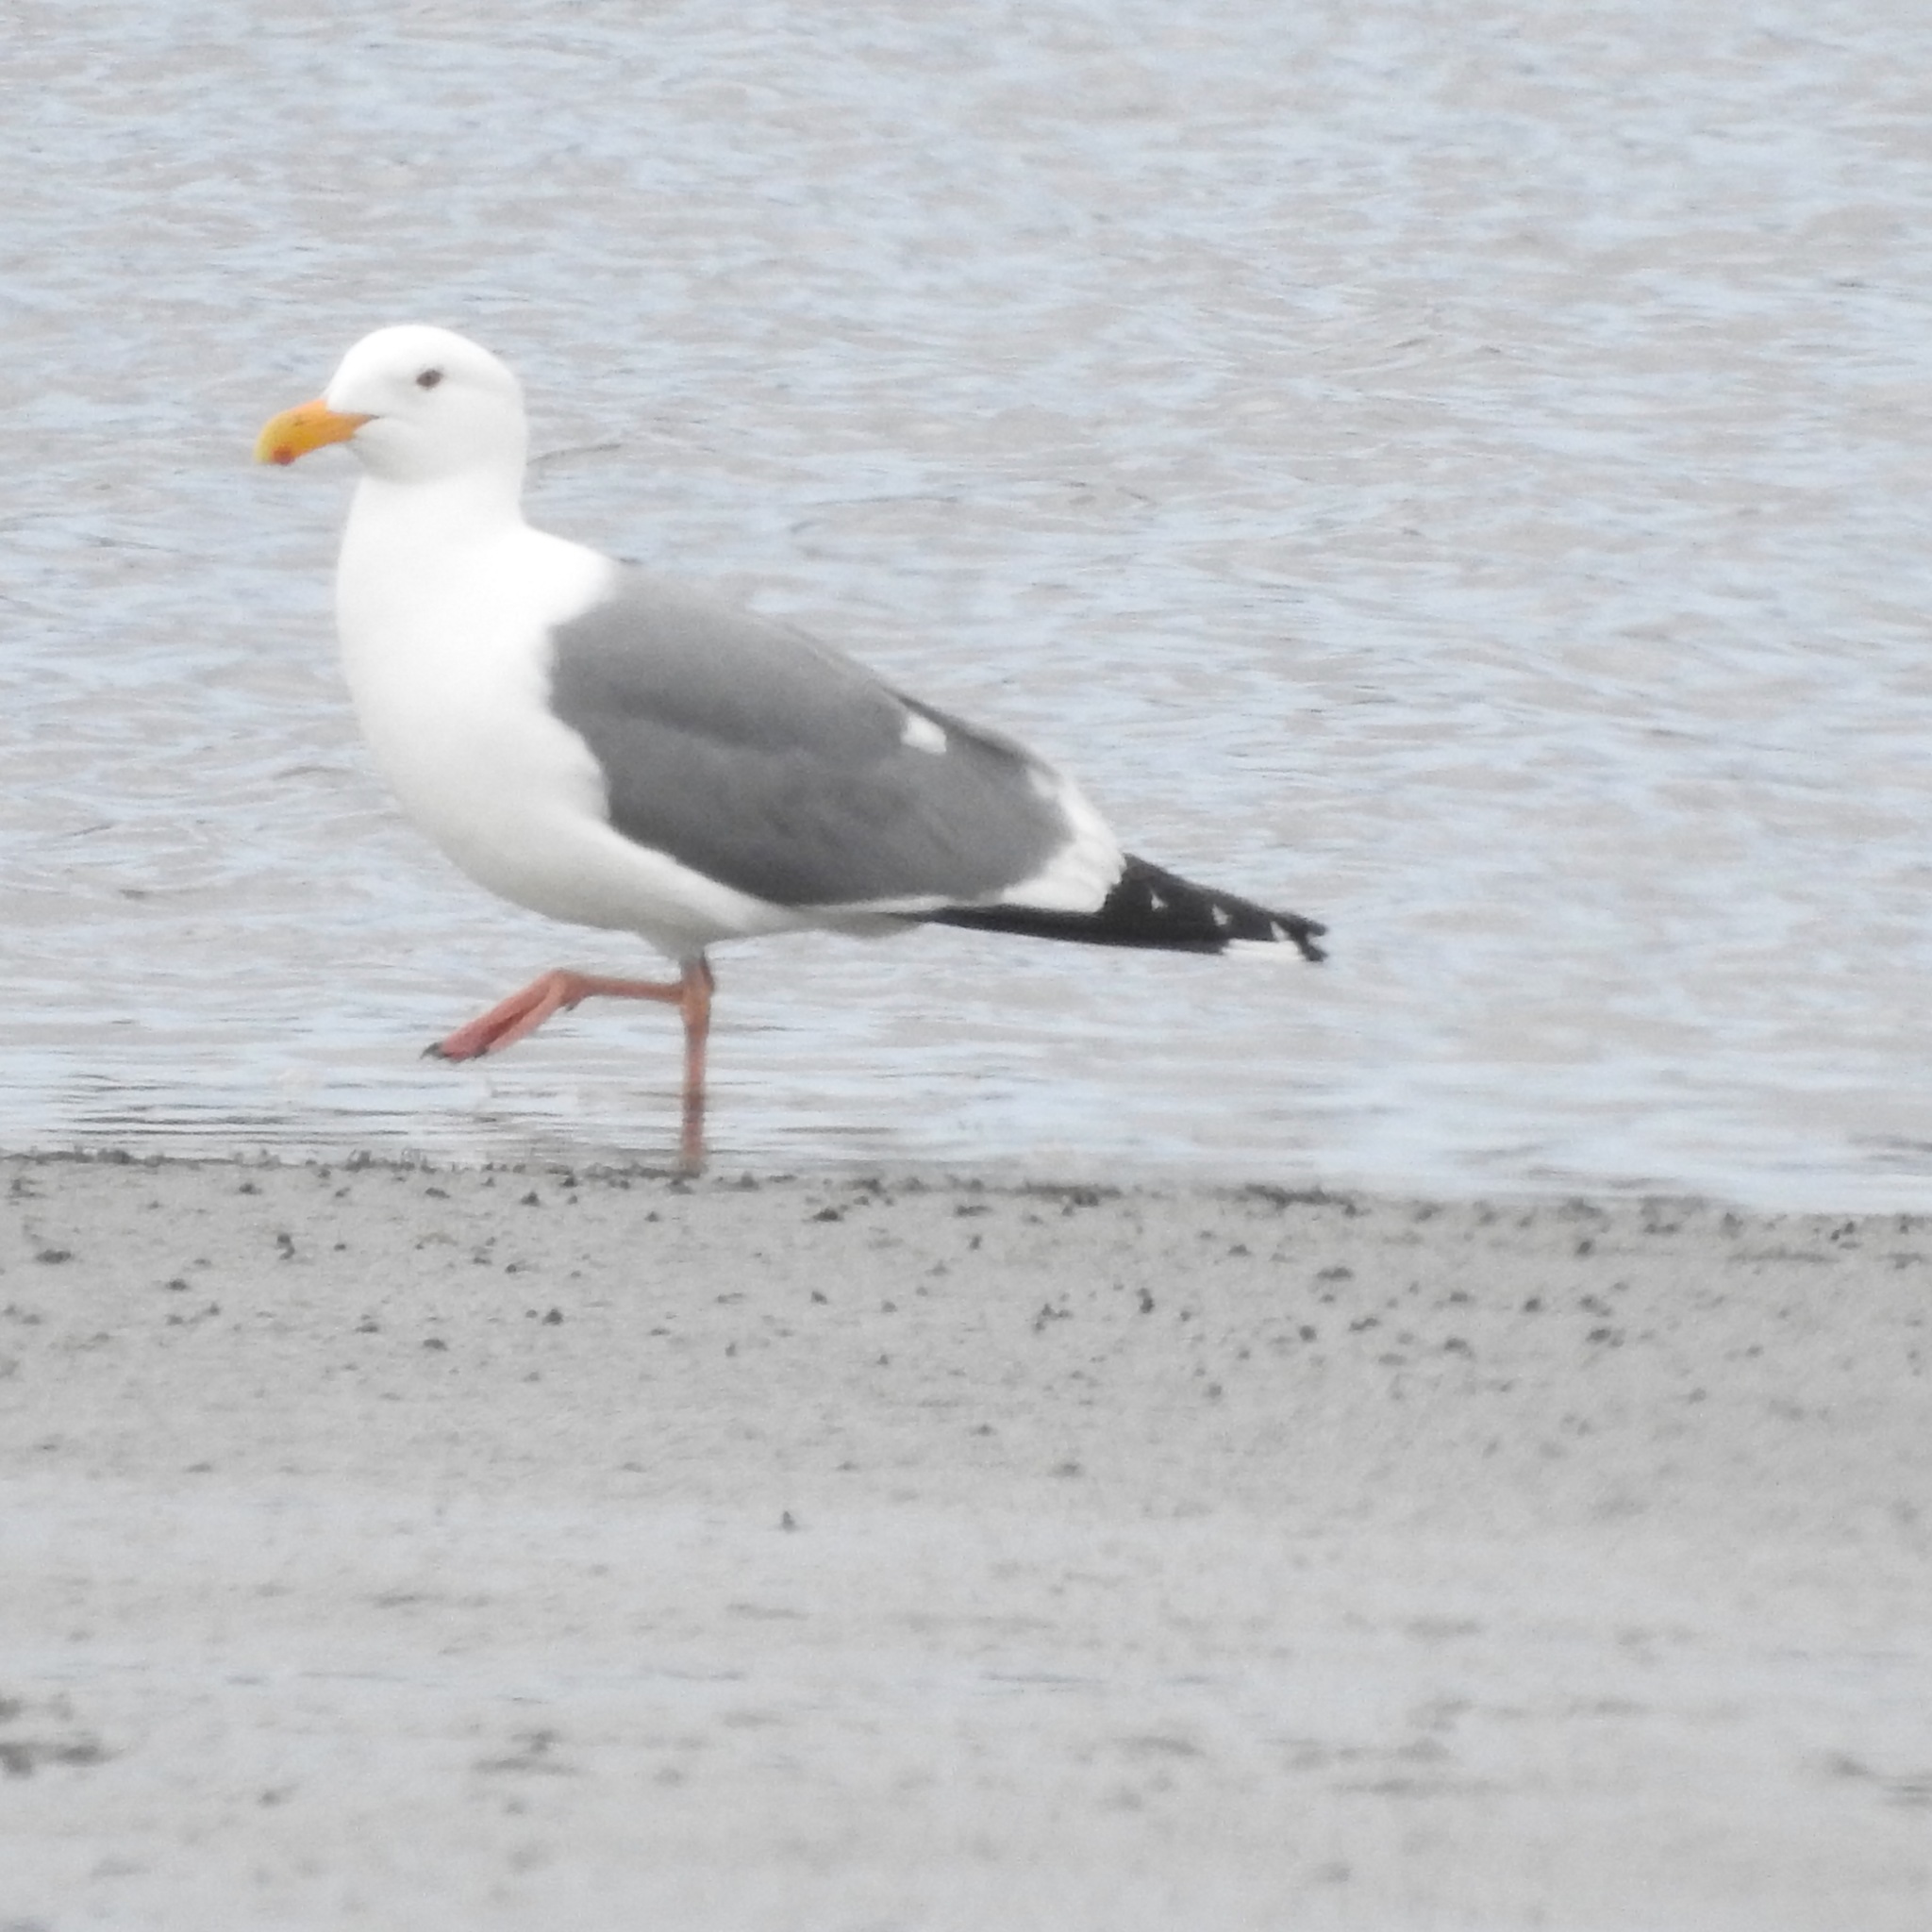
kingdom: Animalia
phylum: Chordata
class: Aves
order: Charadriiformes
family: Laridae
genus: Larus
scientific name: Larus occidentalis
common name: Western gull
